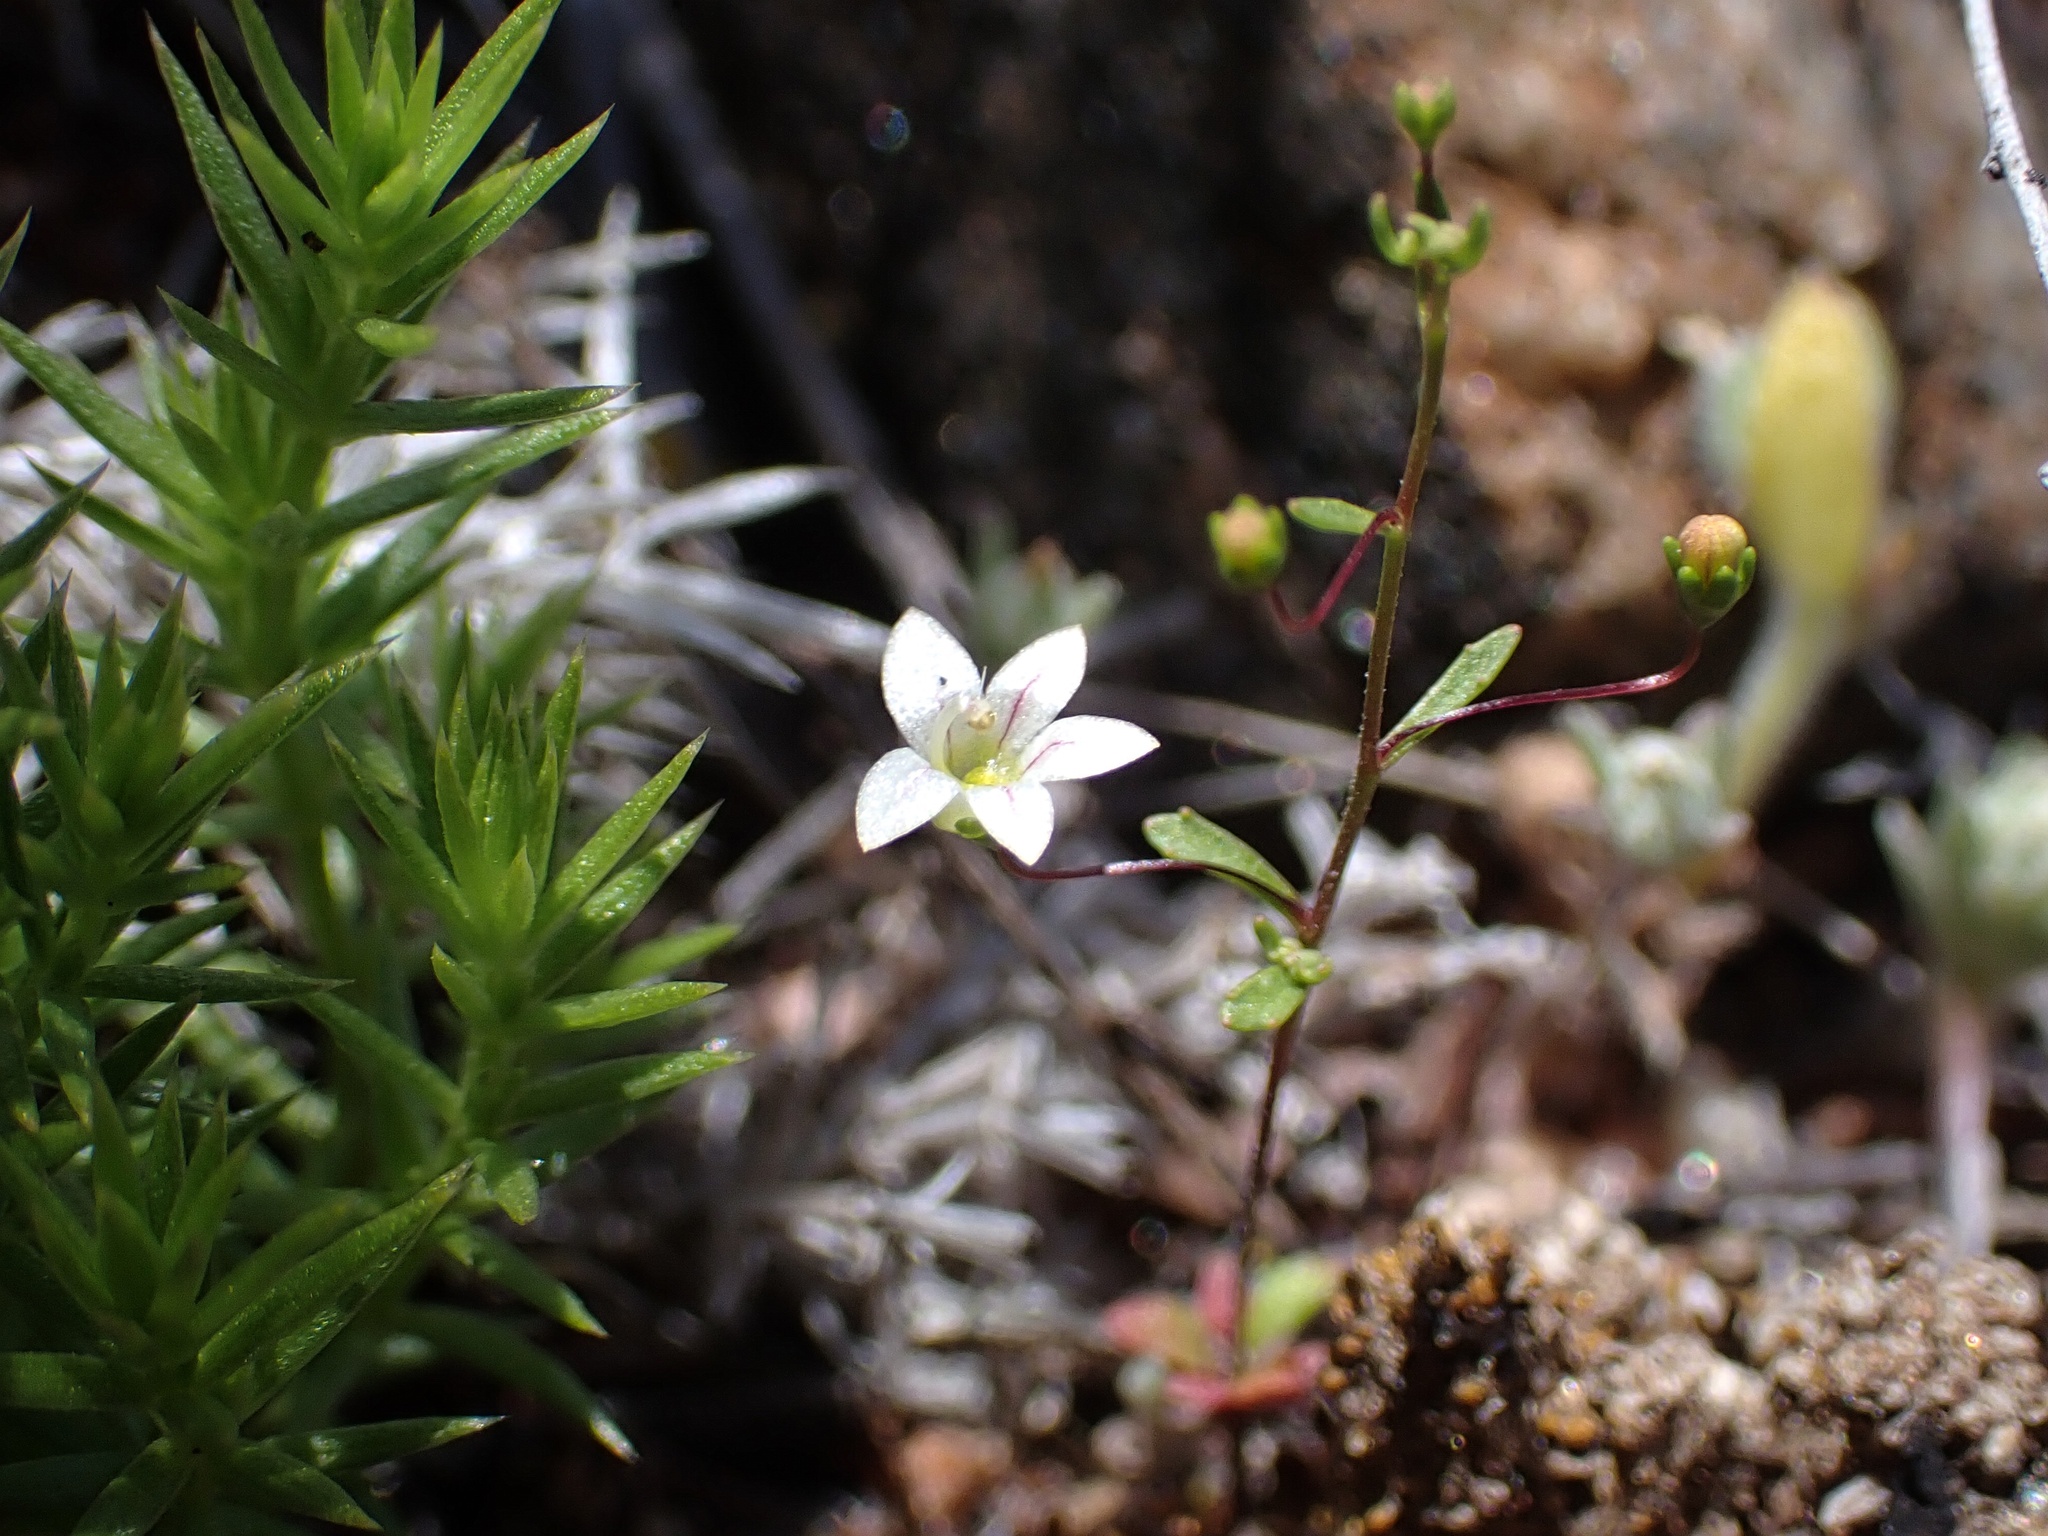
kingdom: Plantae
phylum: Tracheophyta
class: Magnoliopsida
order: Asterales
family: Campanulaceae
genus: Nemacladus
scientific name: Nemacladus ramosissimus
